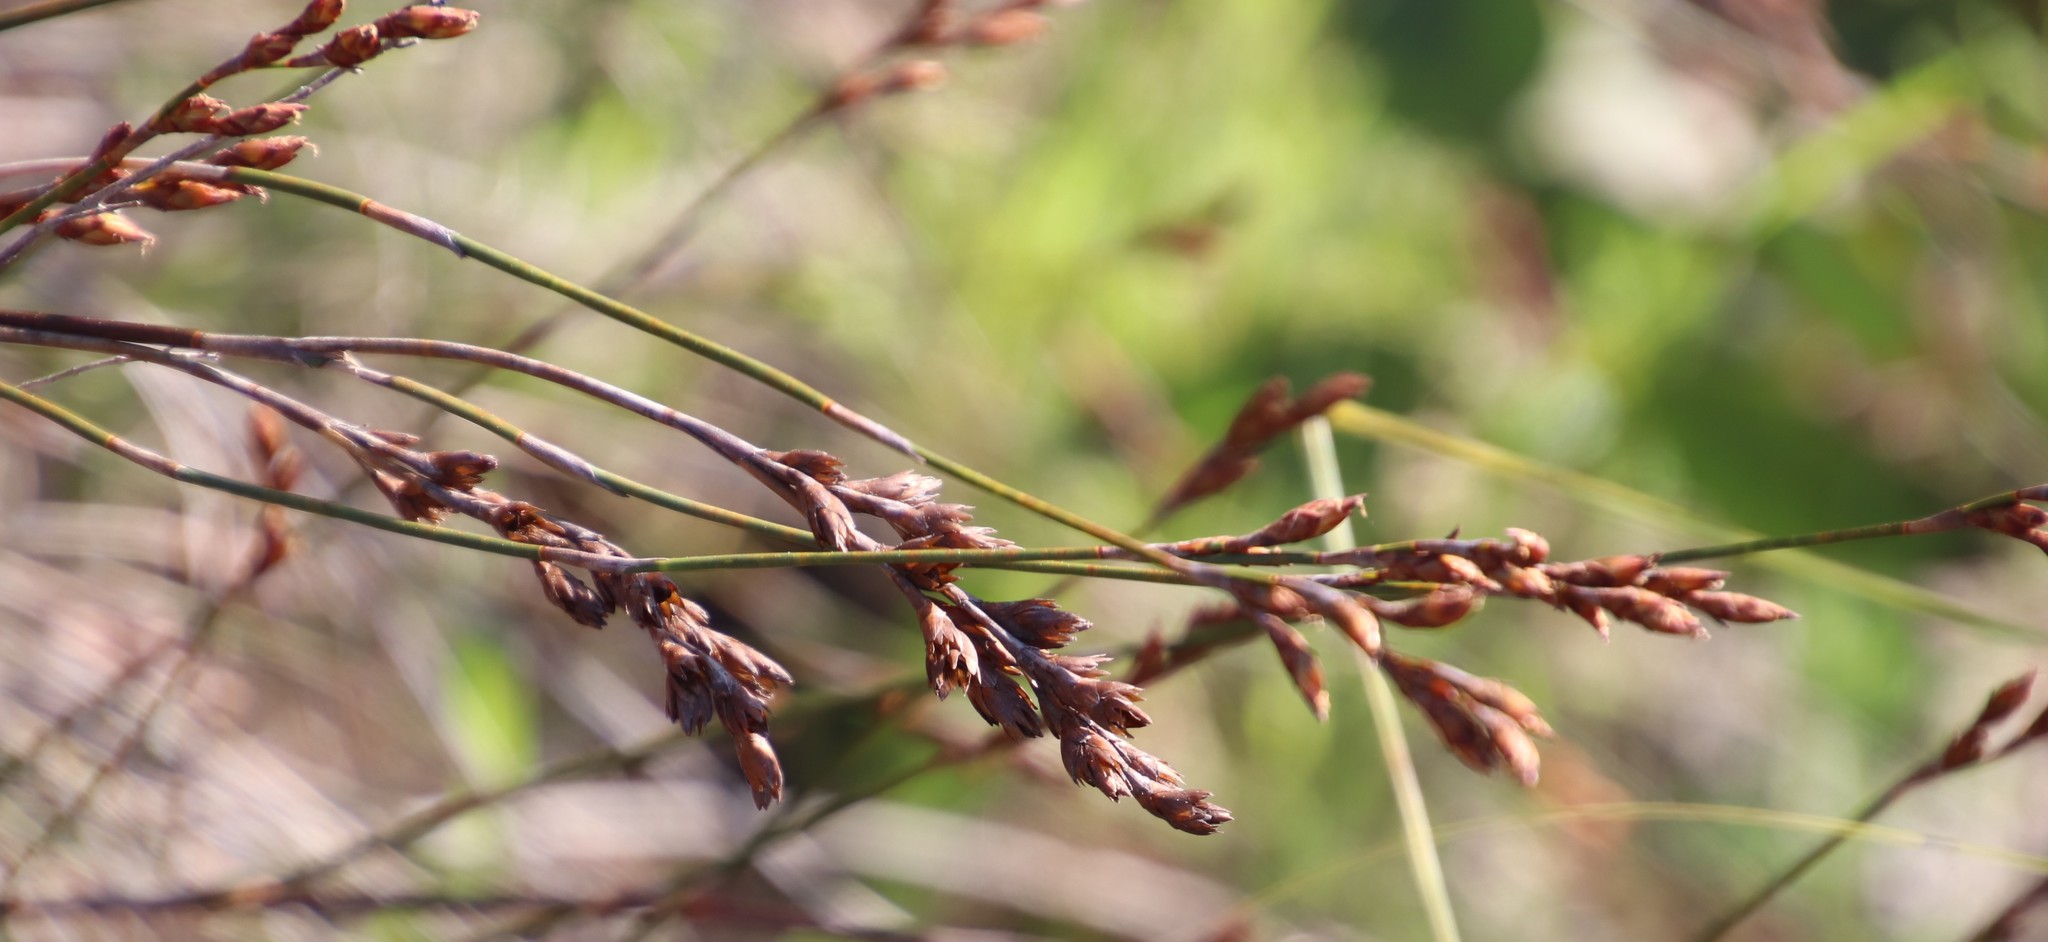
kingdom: Plantae
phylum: Tracheophyta
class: Liliopsida
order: Poales
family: Restionaceae
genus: Restio
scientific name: Restio bifurcus
